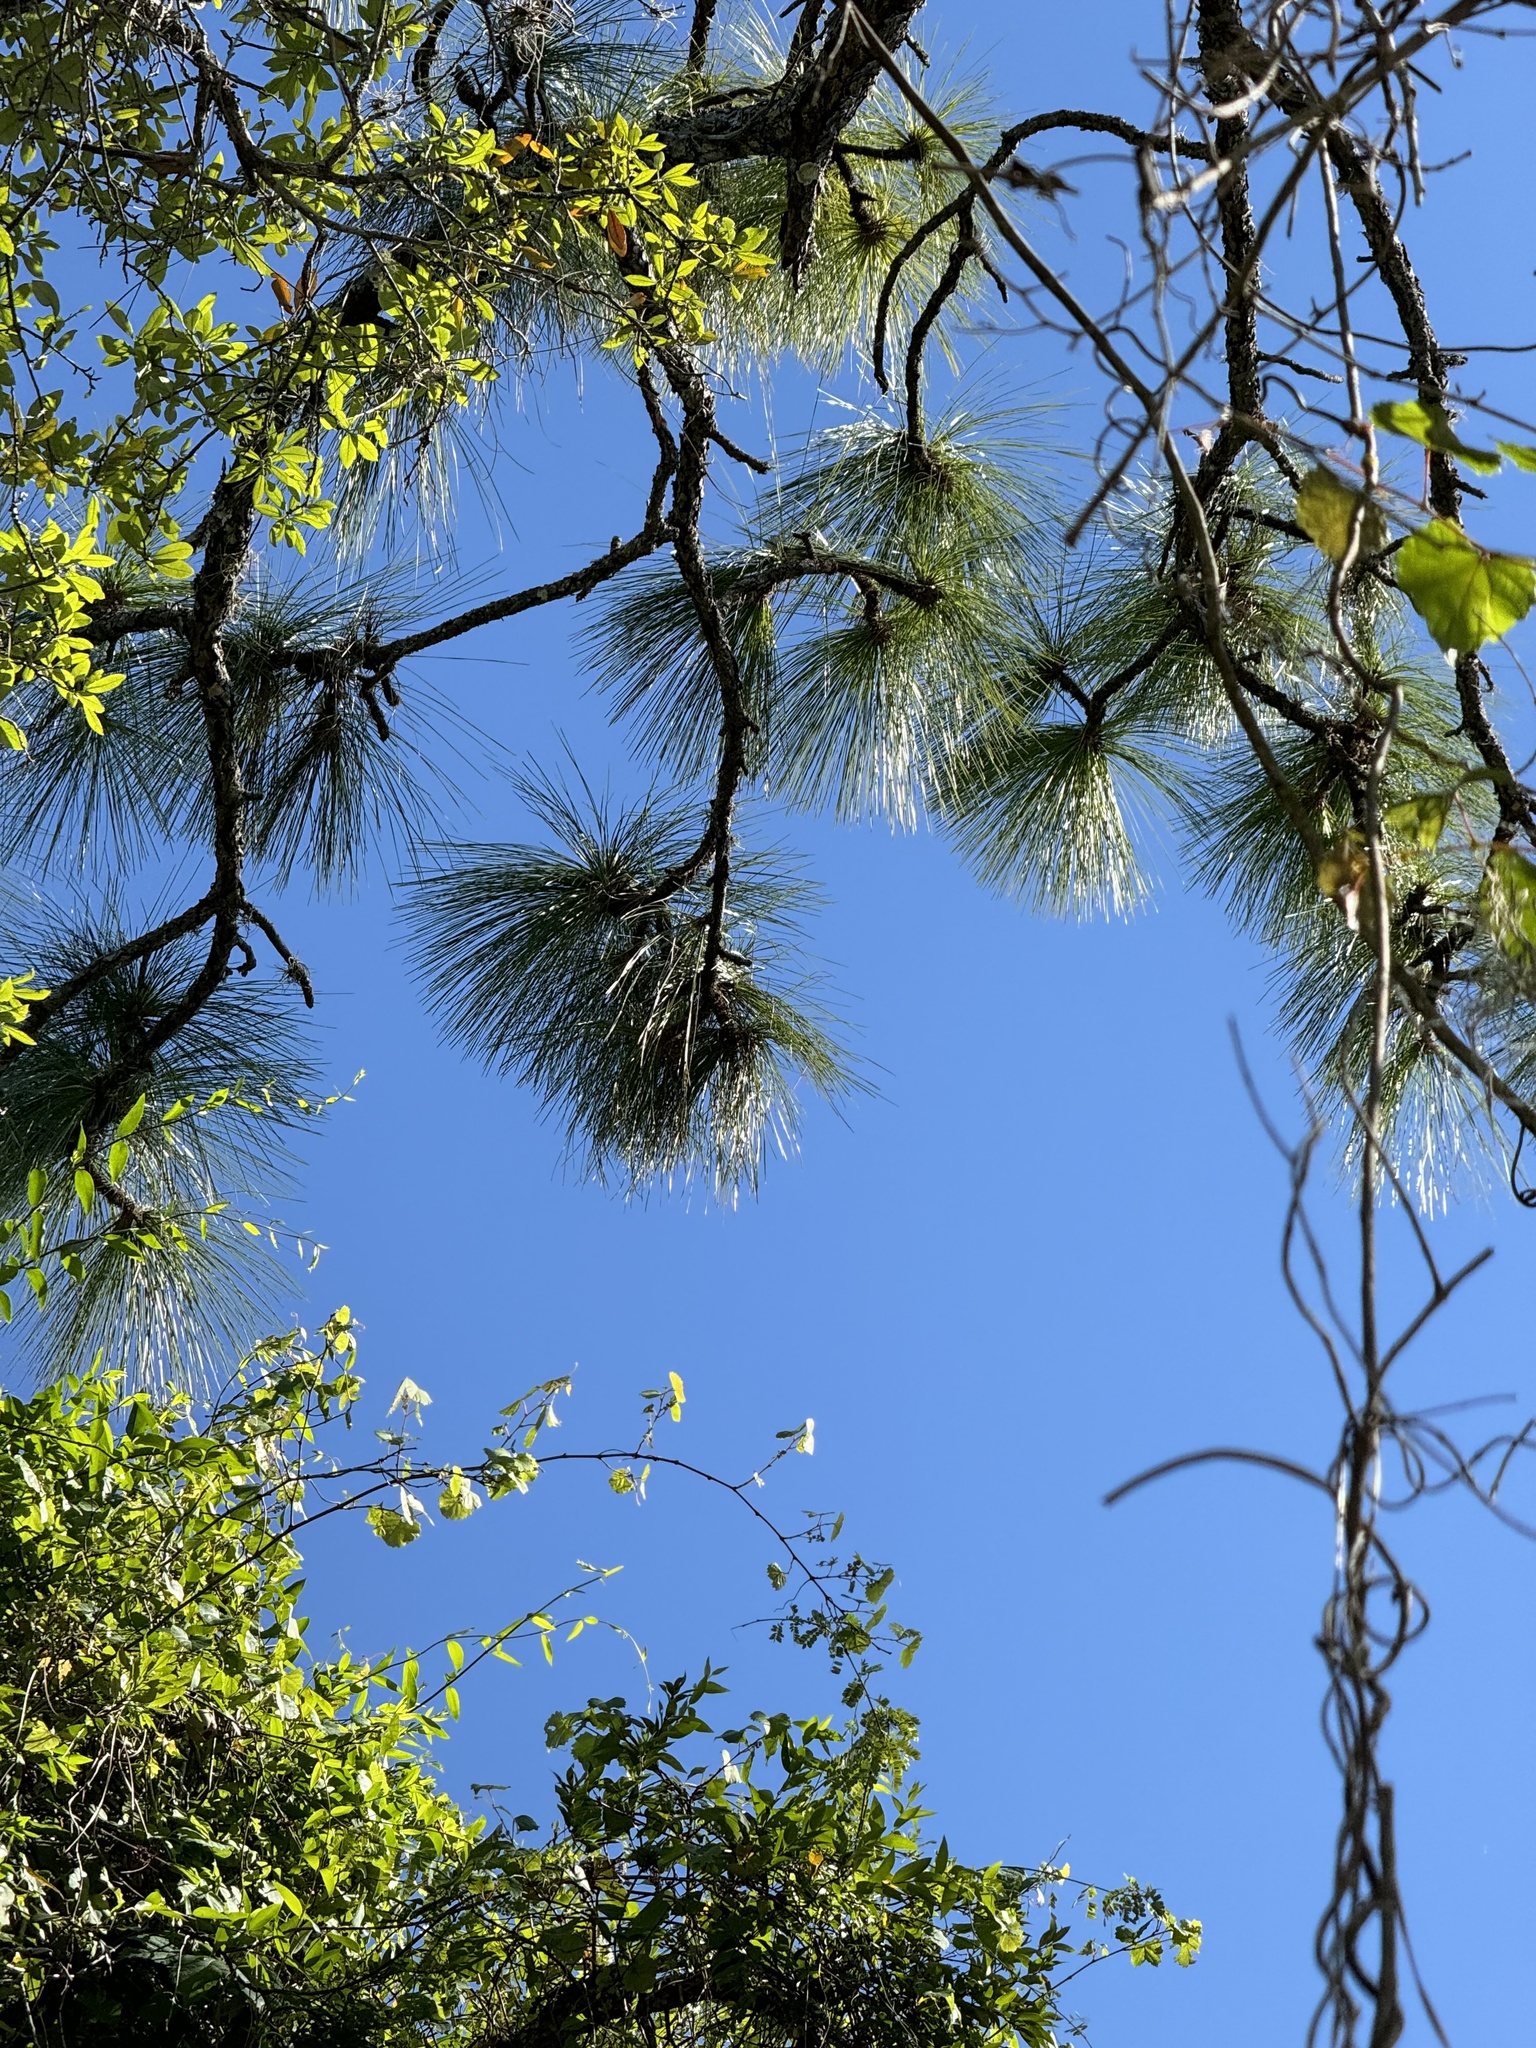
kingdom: Plantae
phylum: Tracheophyta
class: Pinopsida
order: Pinales
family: Pinaceae
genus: Pinus
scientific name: Pinus palustris
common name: Longleaf pine
